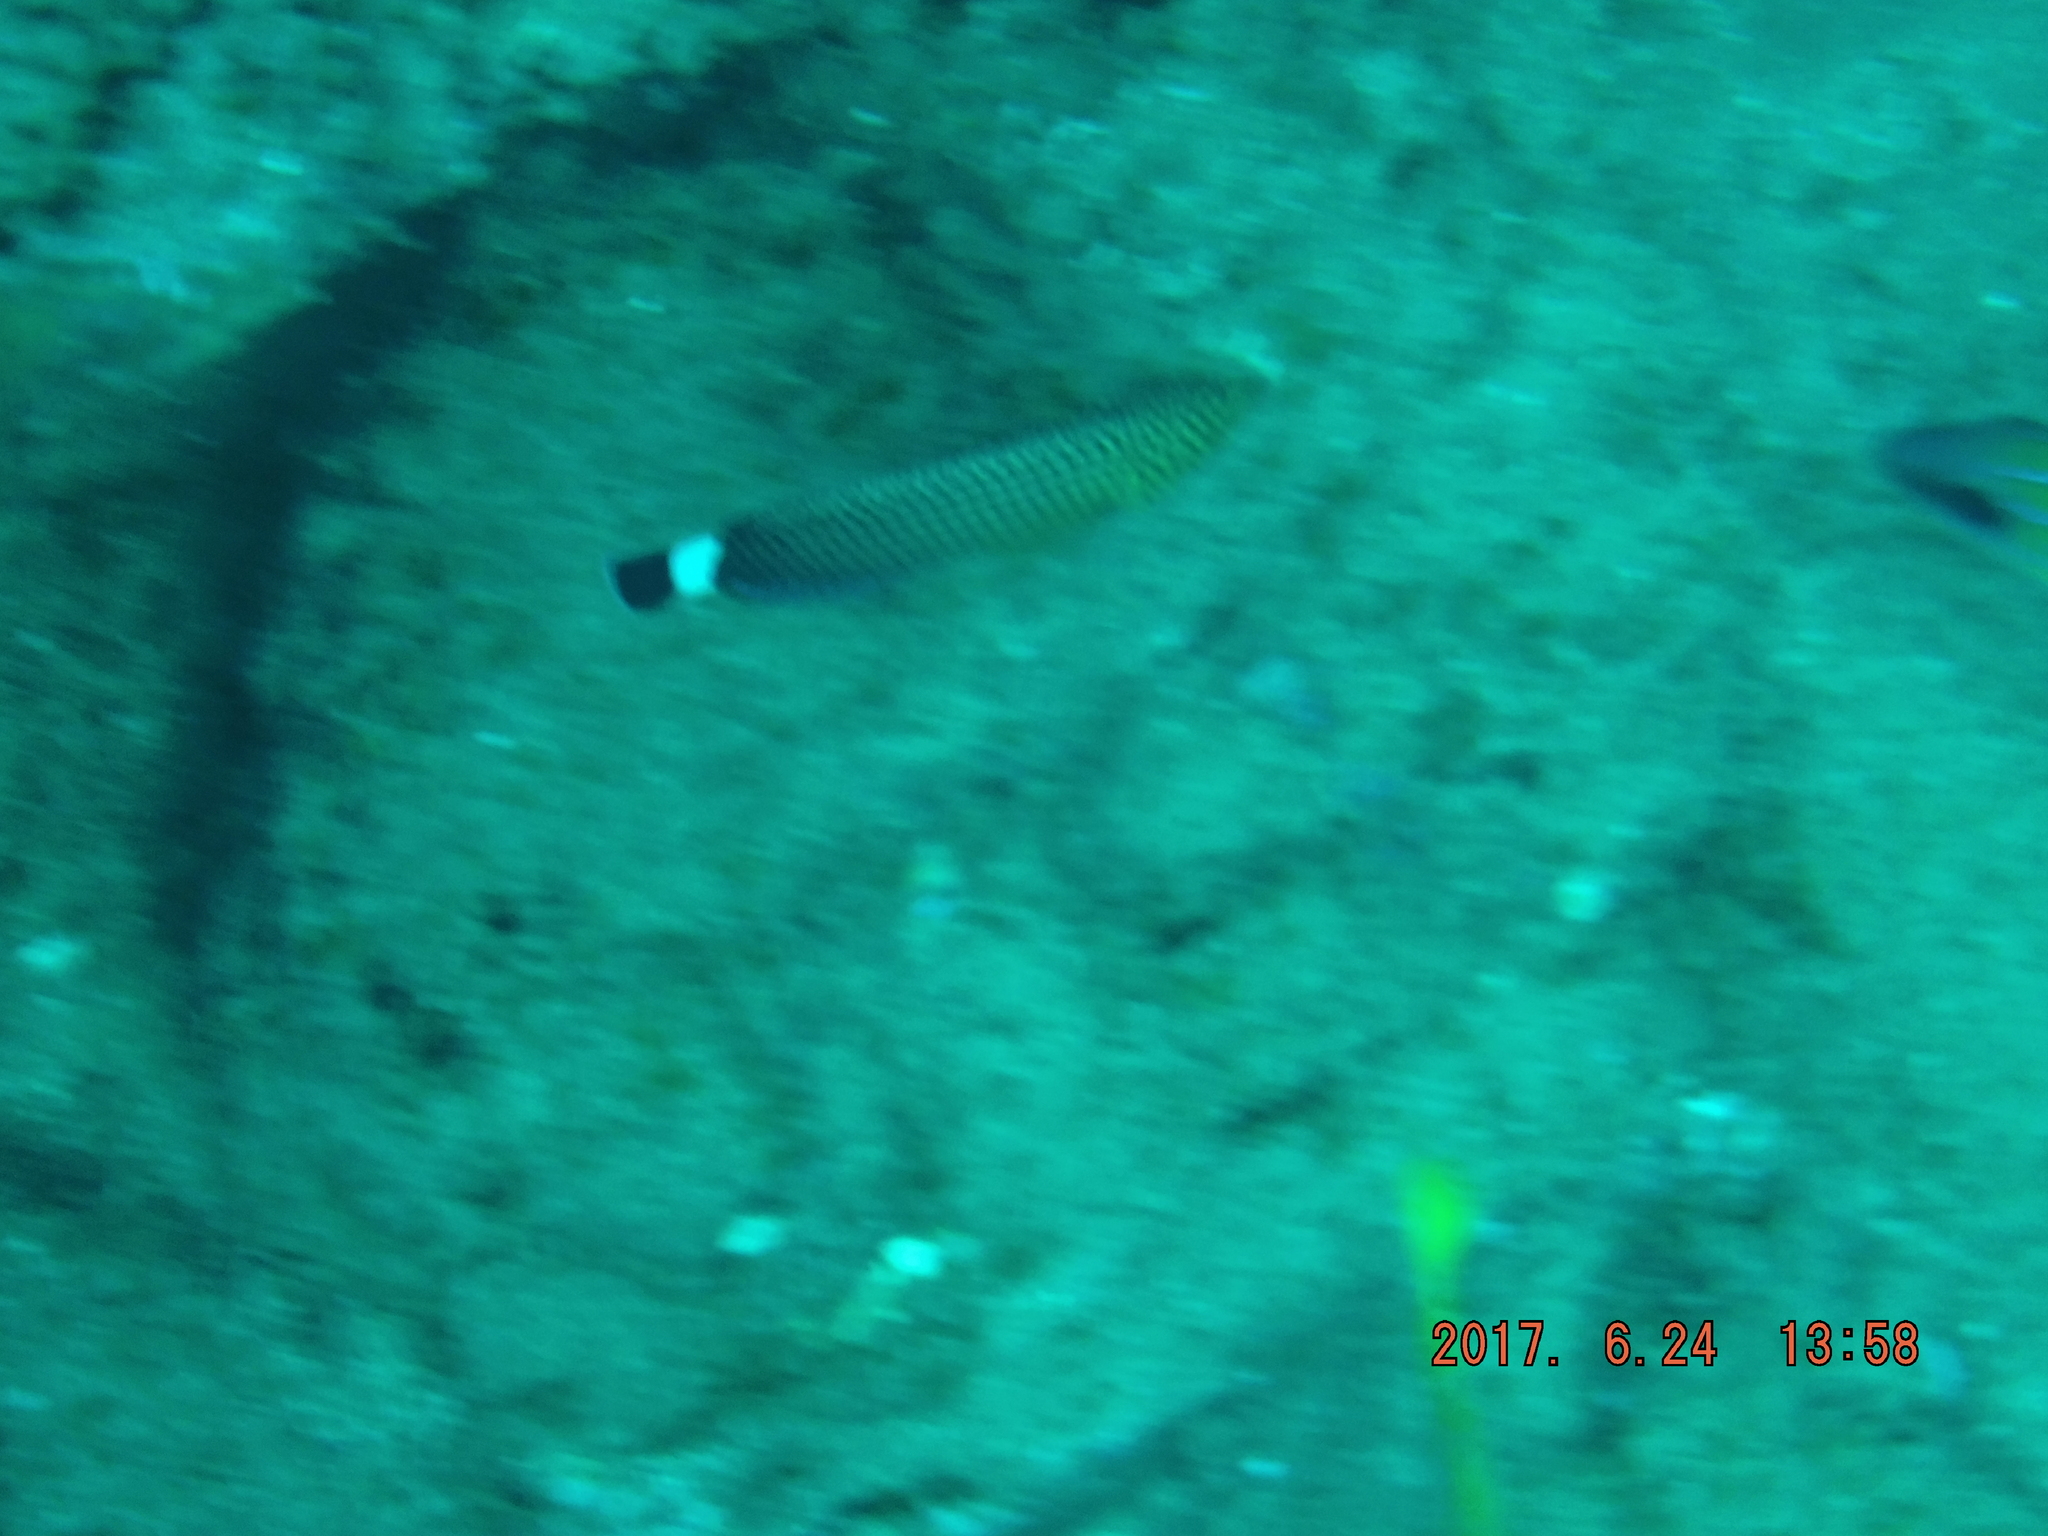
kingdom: Animalia
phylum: Chordata
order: Perciformes
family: Labridae
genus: Anampses
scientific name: Anampses lineatus
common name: Lined wrasse
